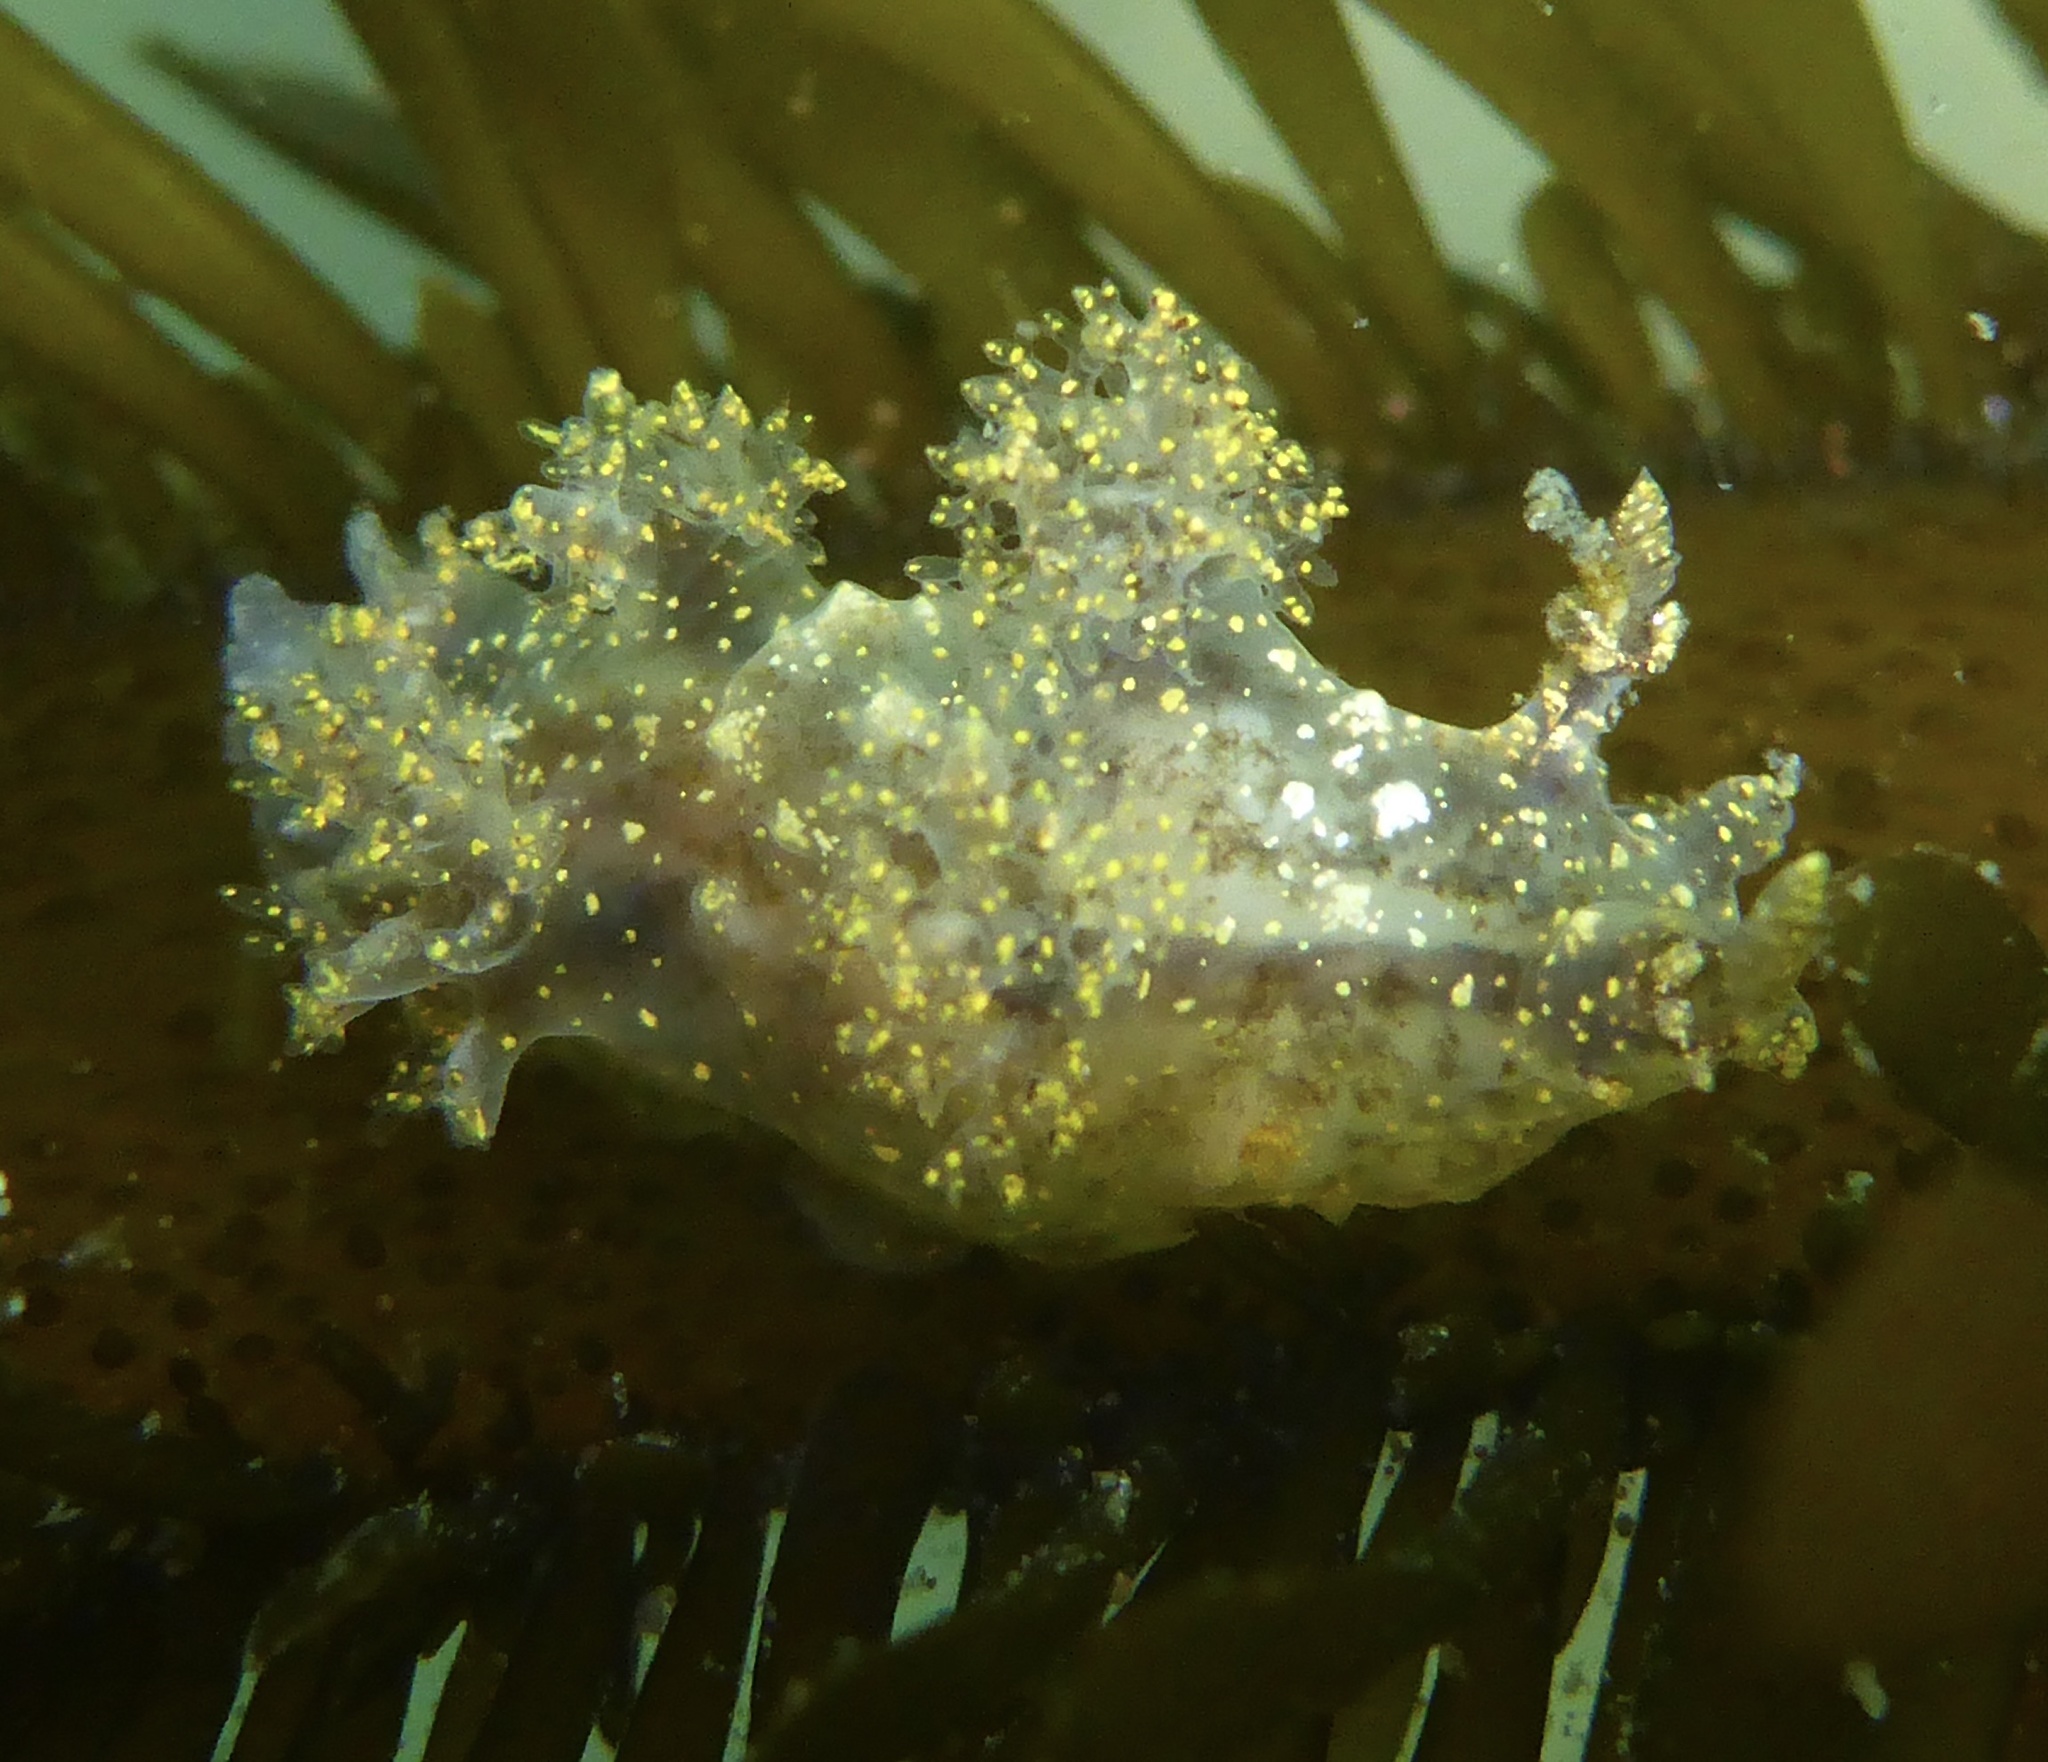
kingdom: Animalia
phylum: Mollusca
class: Gastropoda
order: Nudibranchia
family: Dendronotidae
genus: Dendronotus
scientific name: Dendronotus venustus
